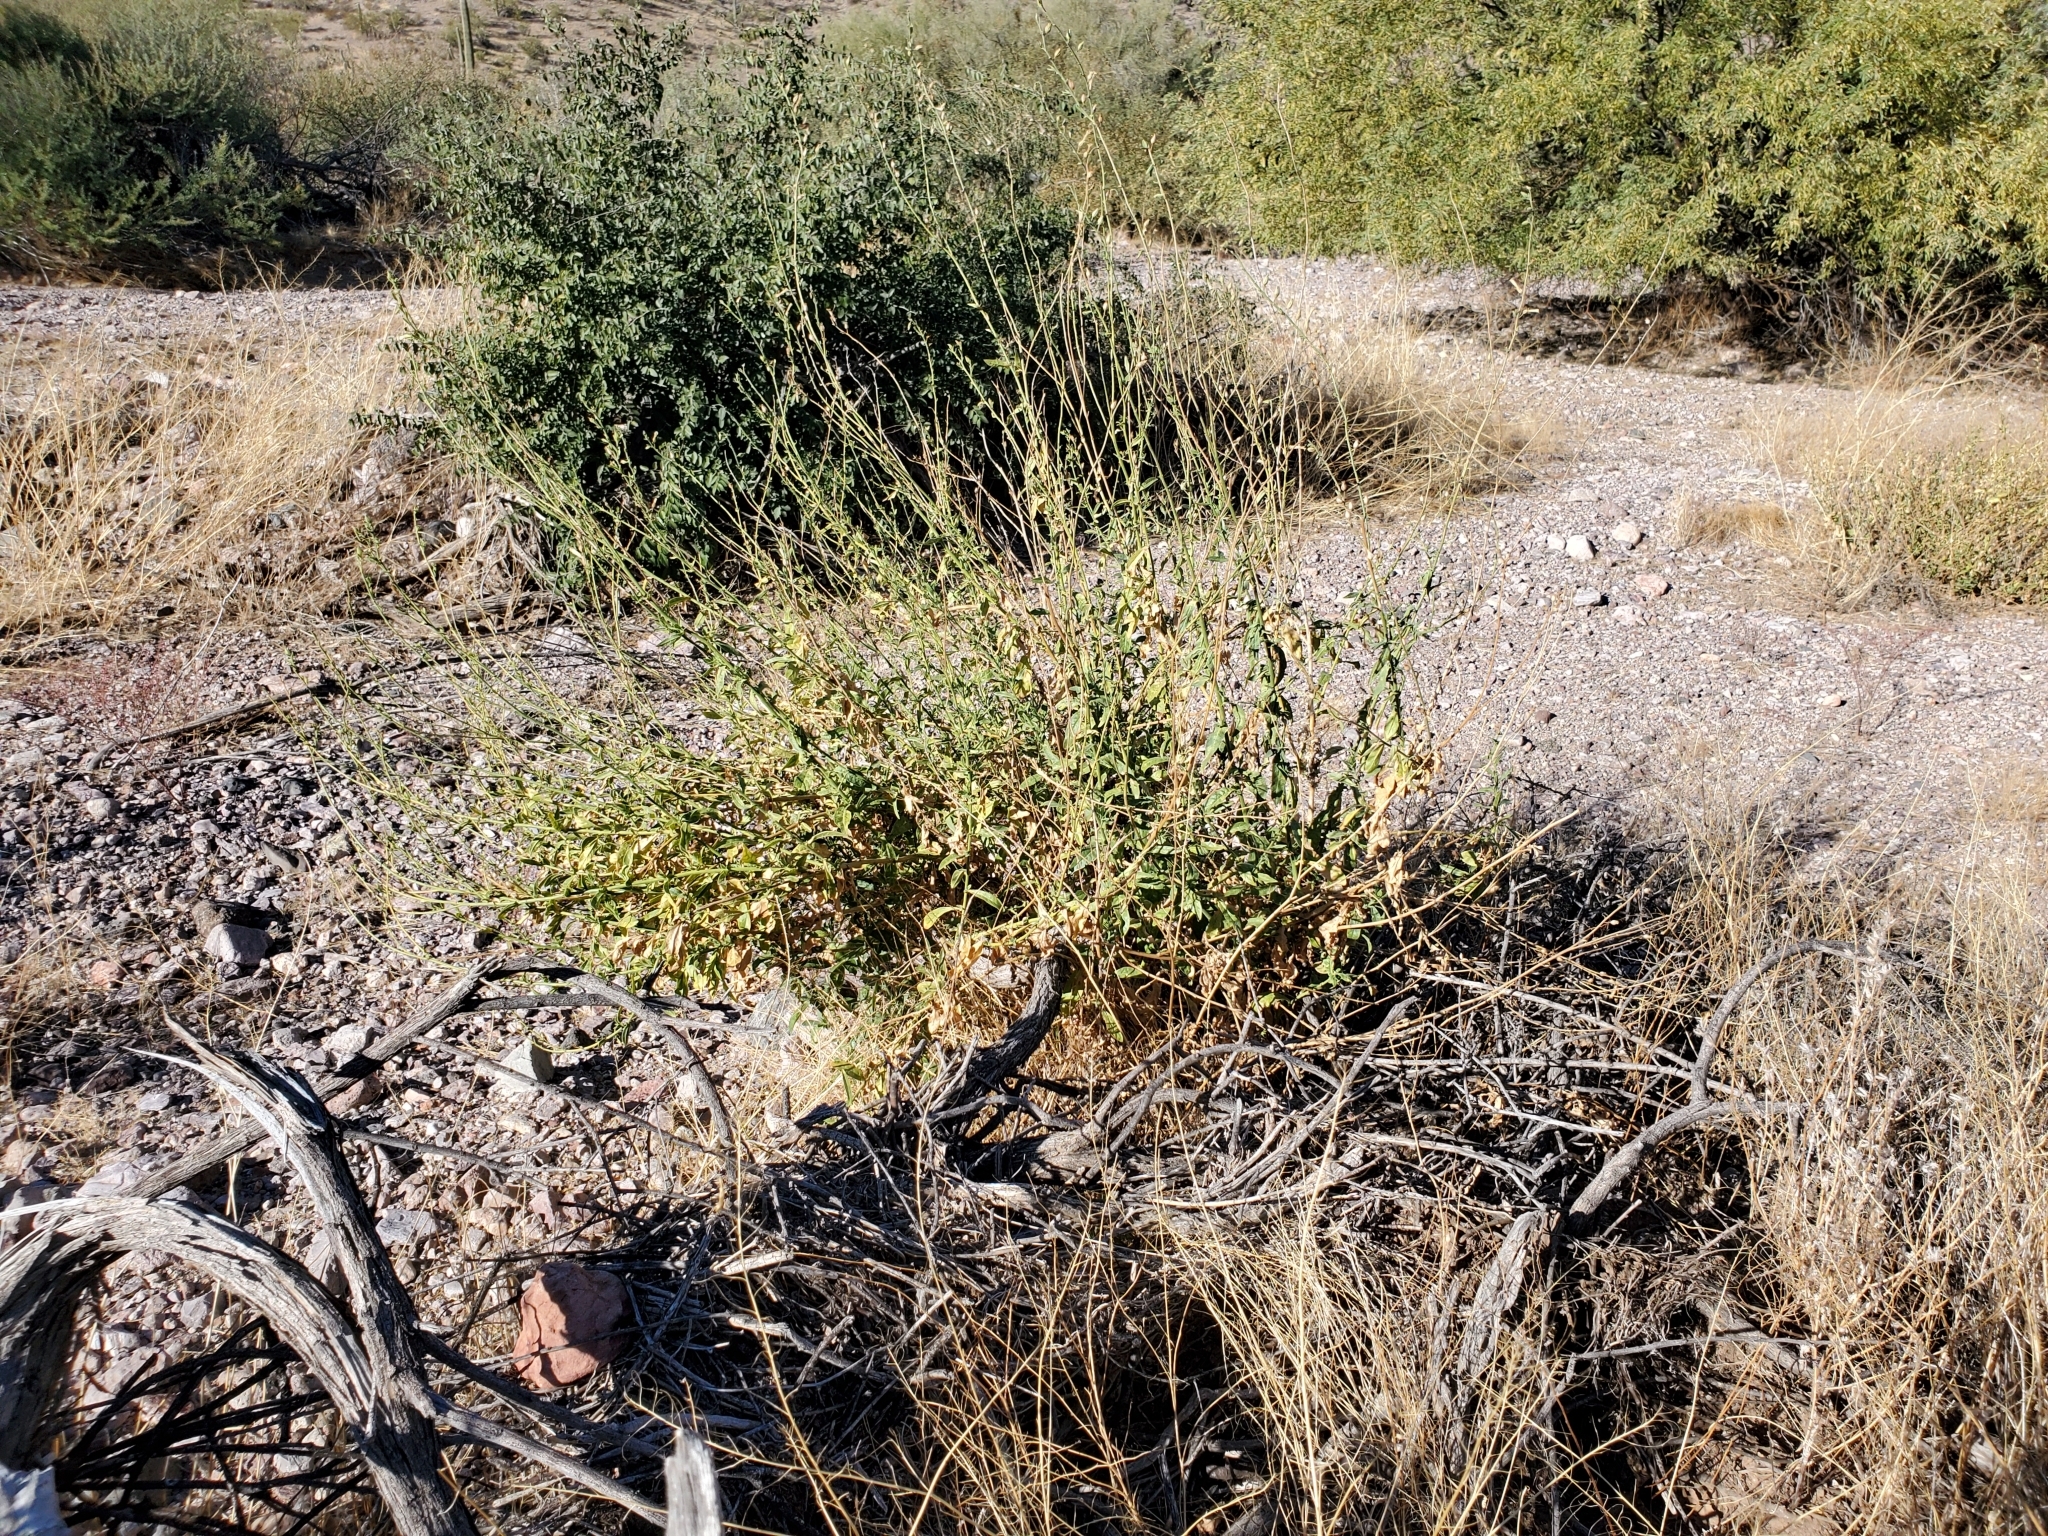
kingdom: Plantae
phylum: Tracheophyta
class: Magnoliopsida
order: Solanales
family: Solanaceae
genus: Nicotiana
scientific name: Nicotiana obtusifolia
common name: Desert tobacco
